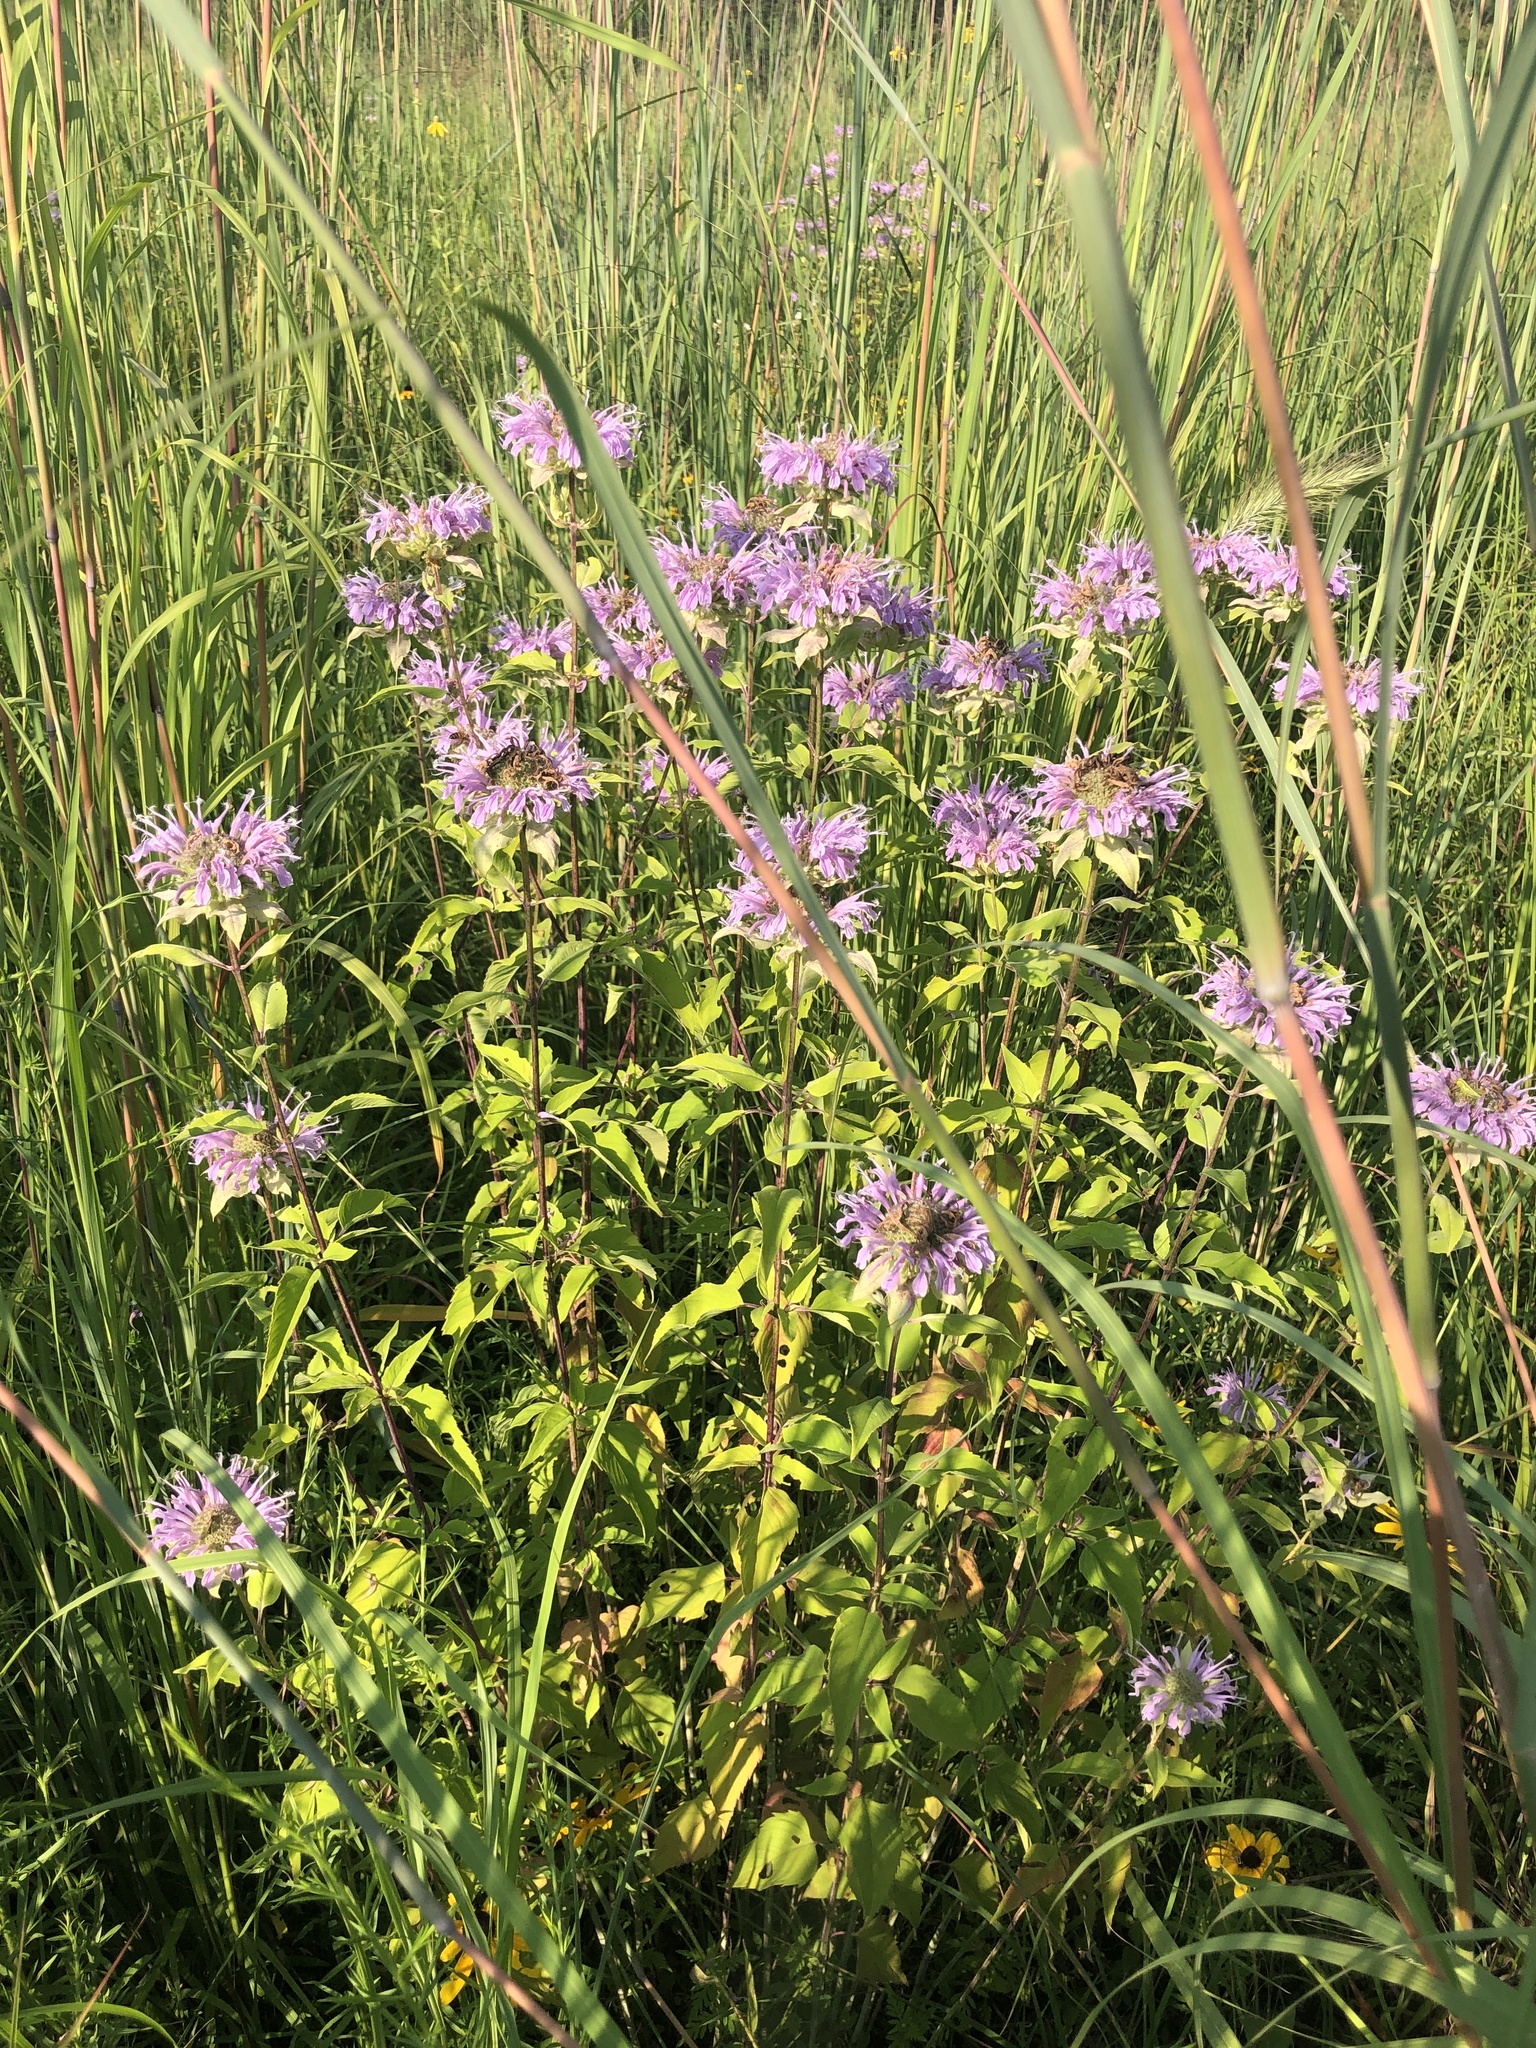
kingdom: Plantae
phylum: Tracheophyta
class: Magnoliopsida
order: Lamiales
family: Lamiaceae
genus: Monarda
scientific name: Monarda fistulosa
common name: Purple beebalm
